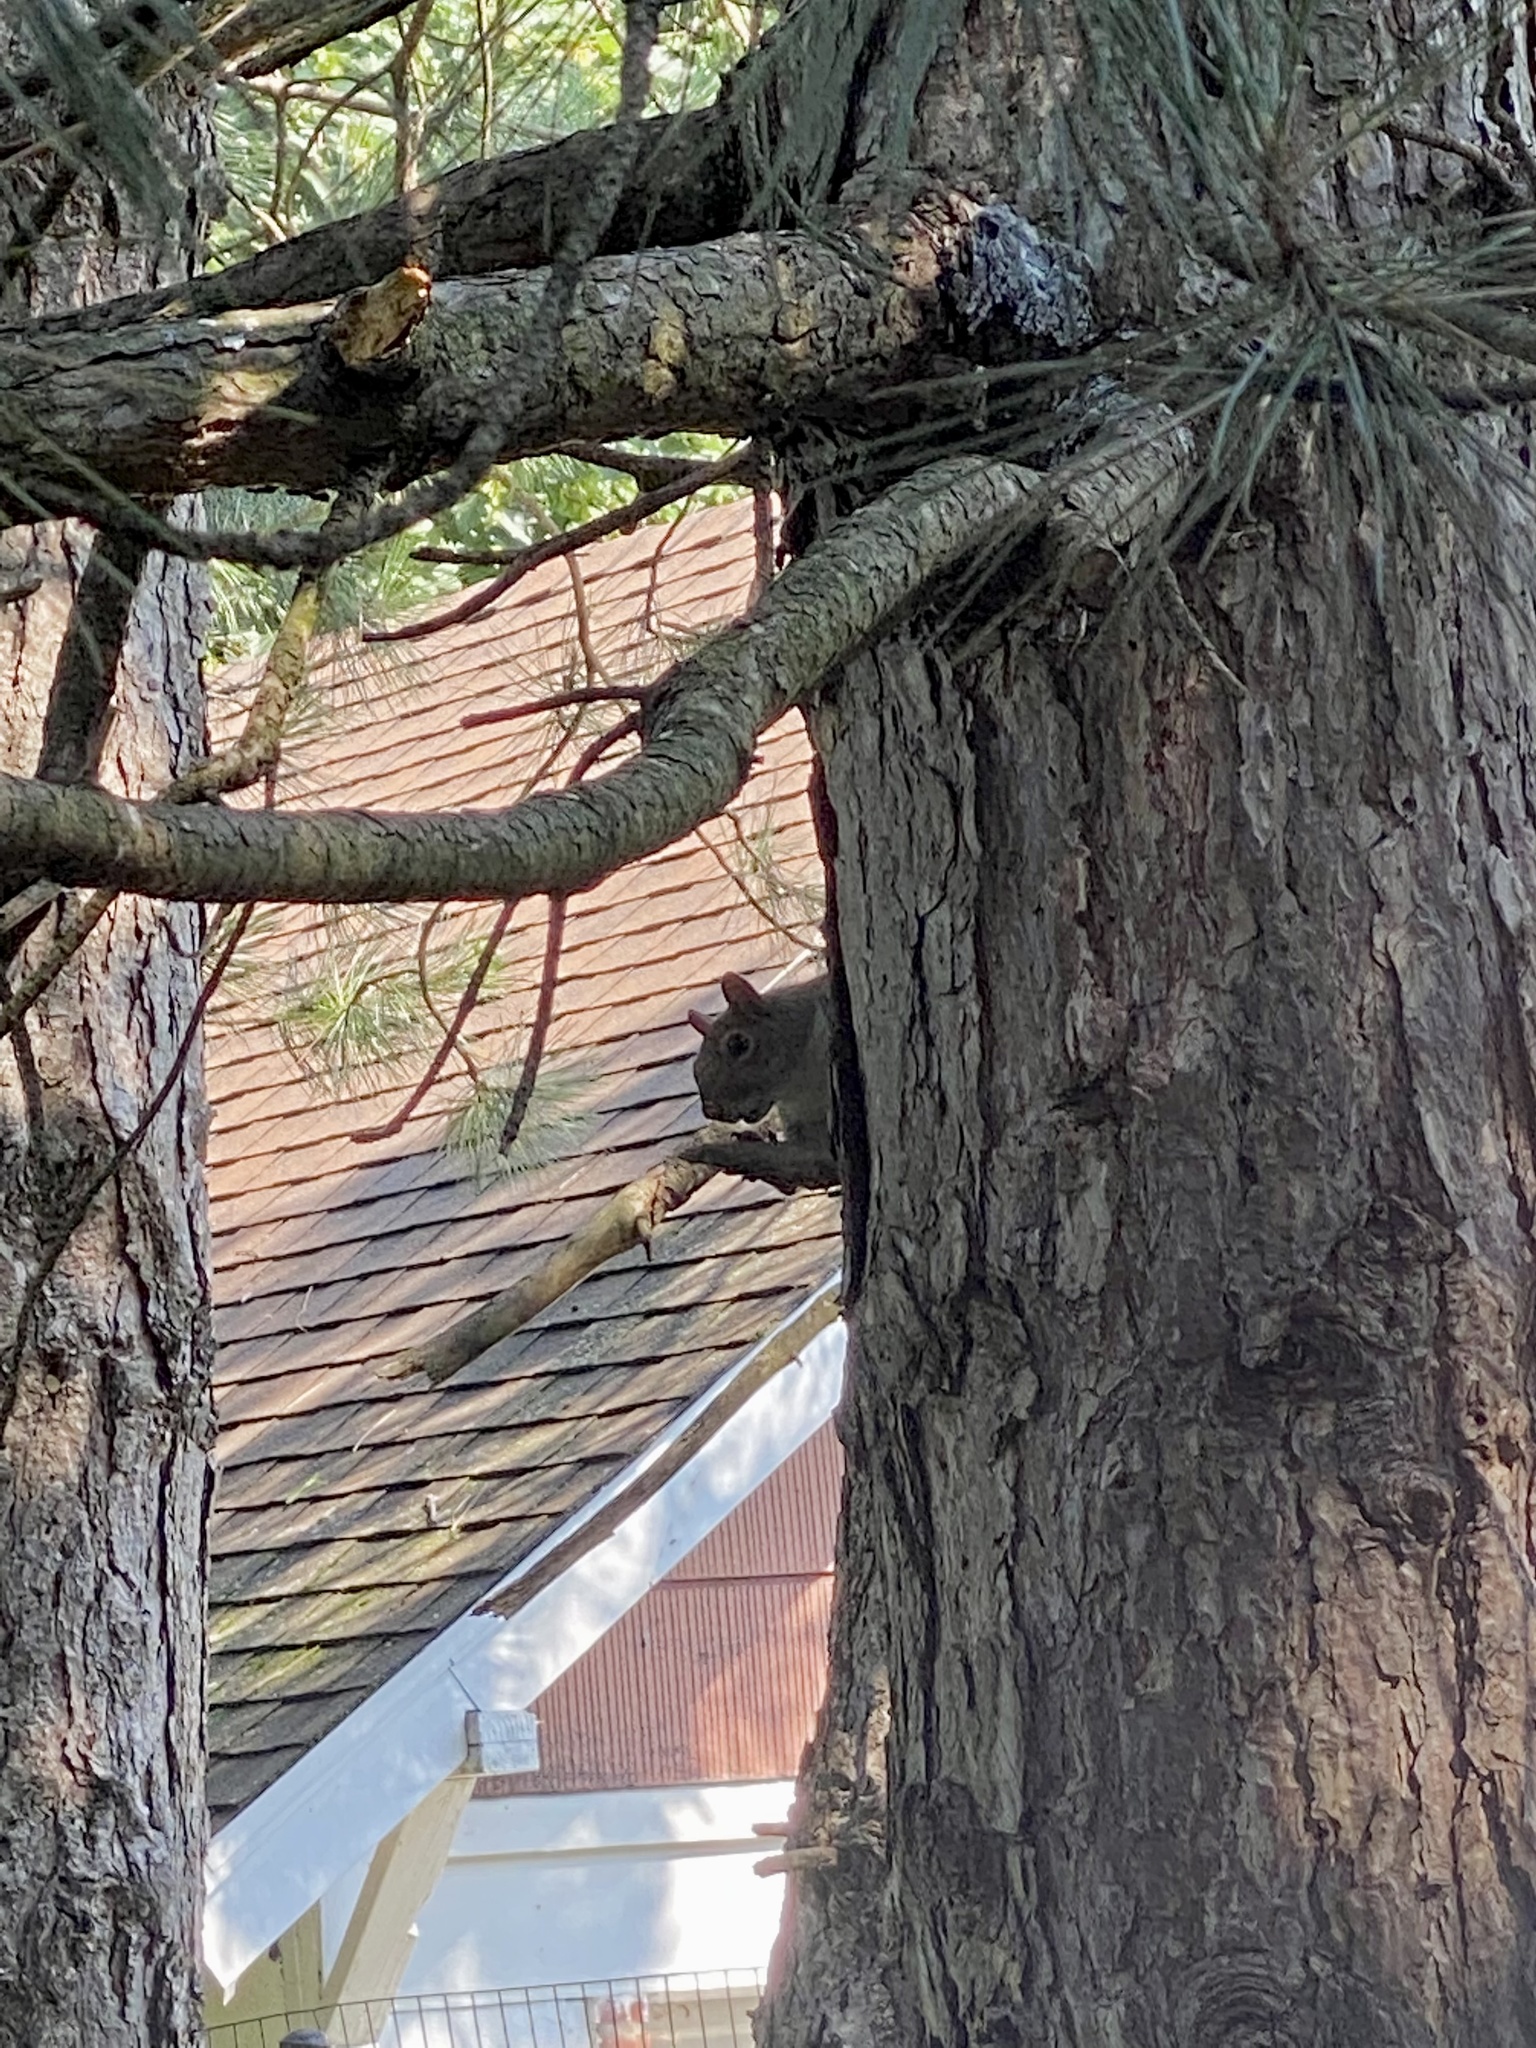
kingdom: Animalia
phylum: Chordata
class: Mammalia
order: Rodentia
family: Sciuridae
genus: Sciurus
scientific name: Sciurus carolinensis
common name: Eastern gray squirrel
